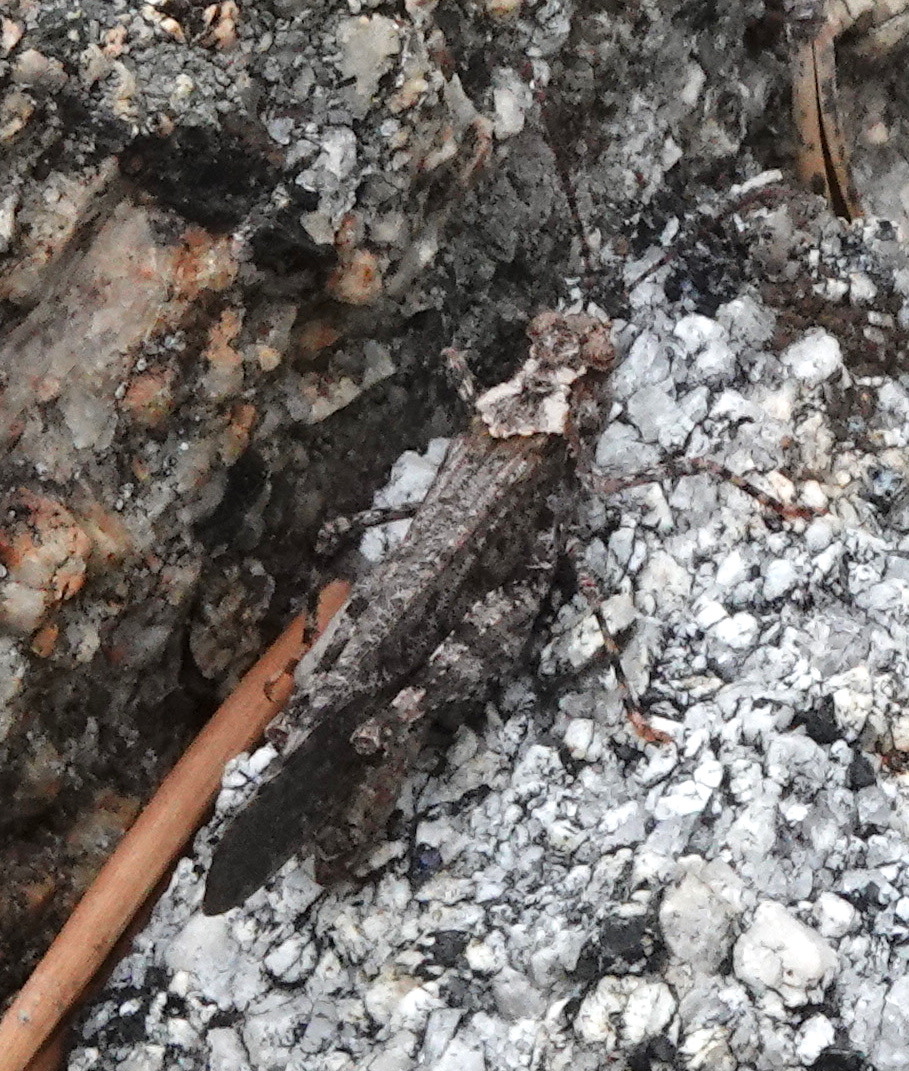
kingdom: Animalia
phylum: Arthropoda
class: Insecta
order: Orthoptera
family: Acrididae
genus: Trimerotropis
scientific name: Trimerotropis verruculata
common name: Crackling forest grasshopper
